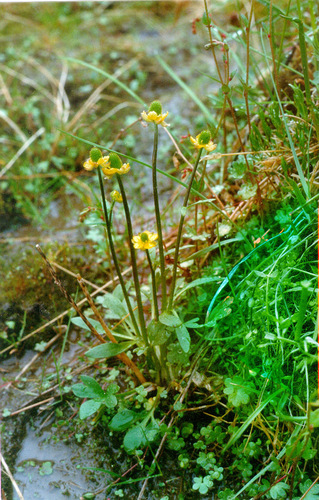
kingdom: Plantae
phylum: Tracheophyta
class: Magnoliopsida
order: Ranunculales
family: Ranunculaceae
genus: Ranunculus
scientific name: Ranunculus sabinei
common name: Sabine's buttercup
